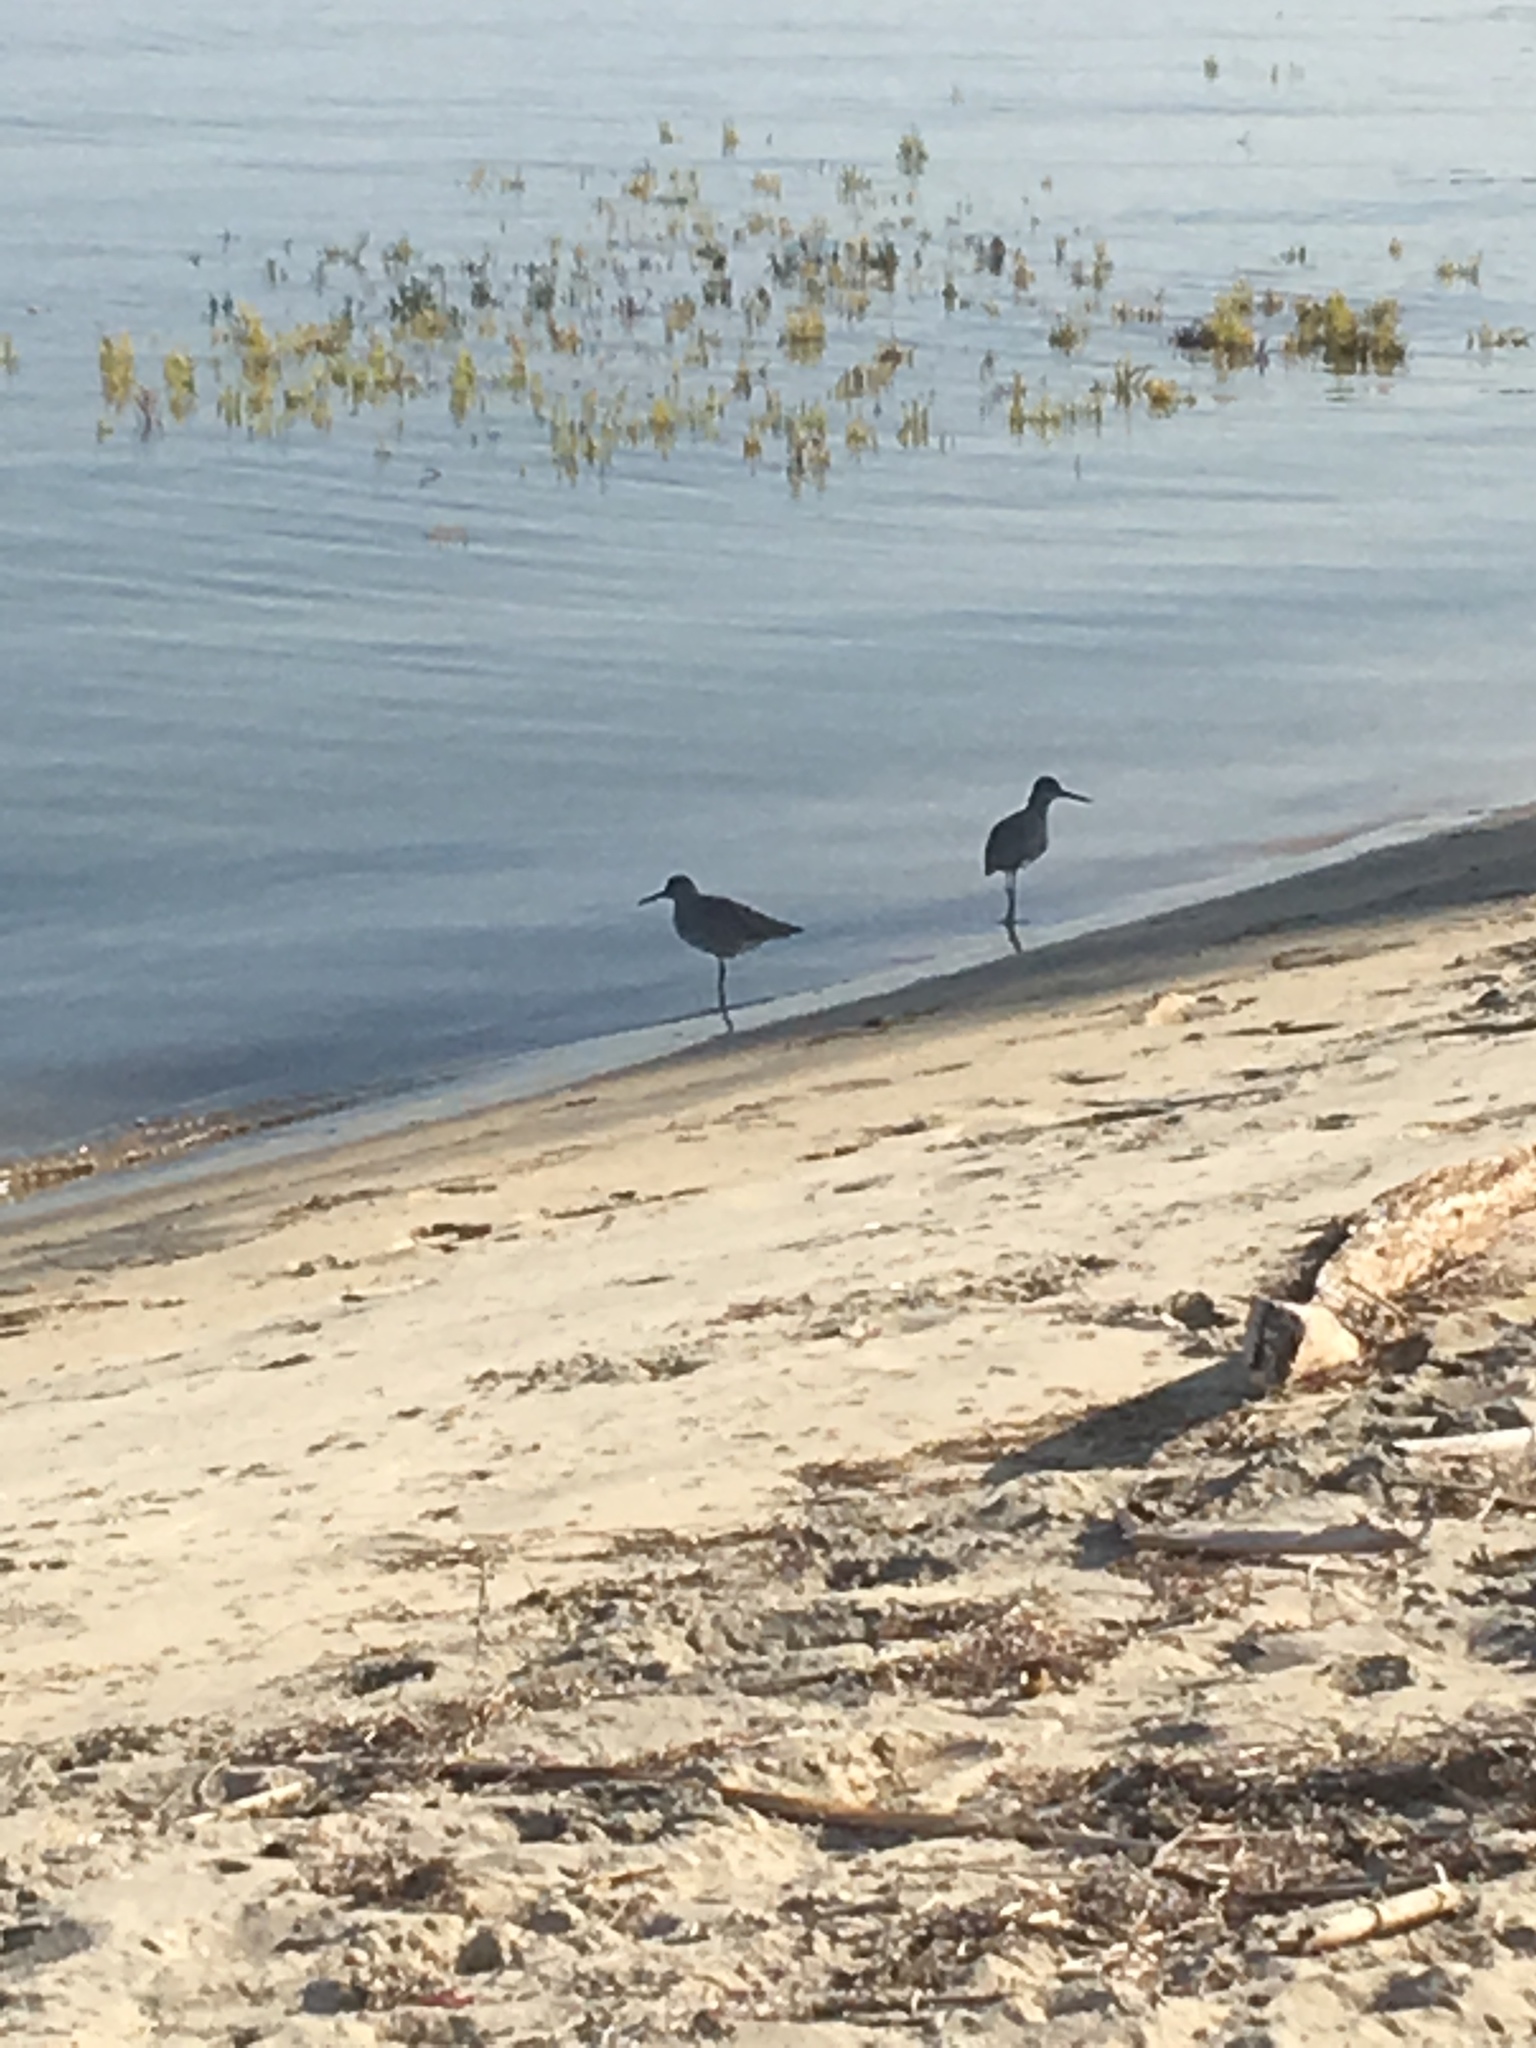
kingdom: Animalia
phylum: Chordata
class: Aves
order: Charadriiformes
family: Scolopacidae
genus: Tringa
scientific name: Tringa semipalmata
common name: Willet
